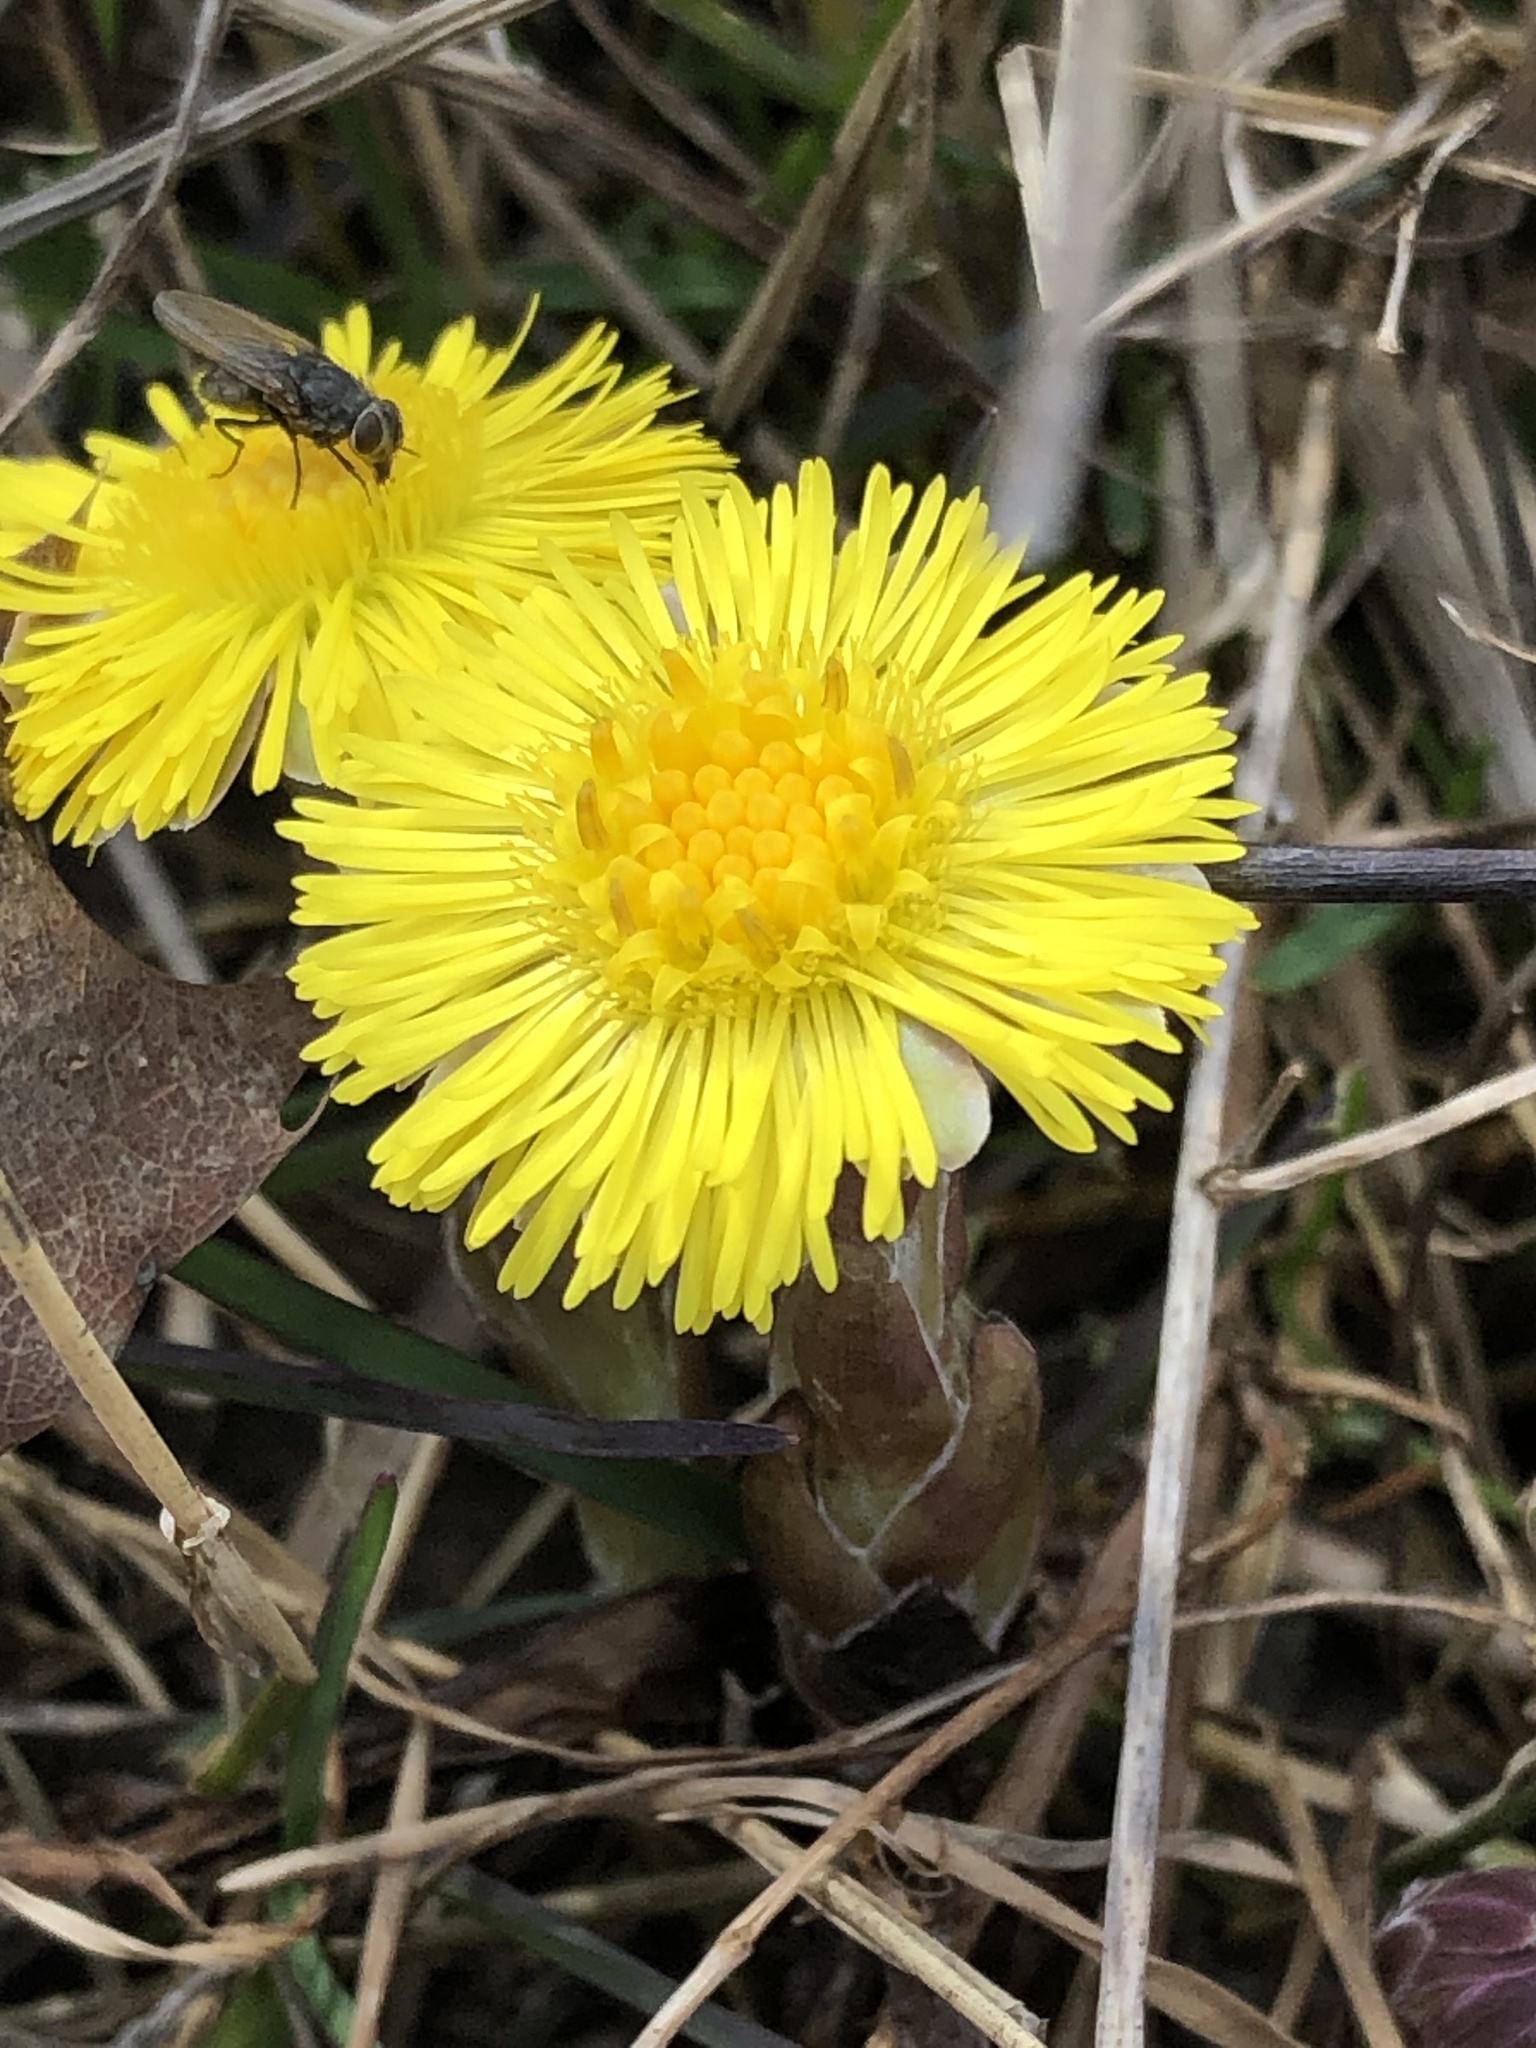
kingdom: Plantae
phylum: Tracheophyta
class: Magnoliopsida
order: Asterales
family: Asteraceae
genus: Tussilago
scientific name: Tussilago farfara
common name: Coltsfoot
